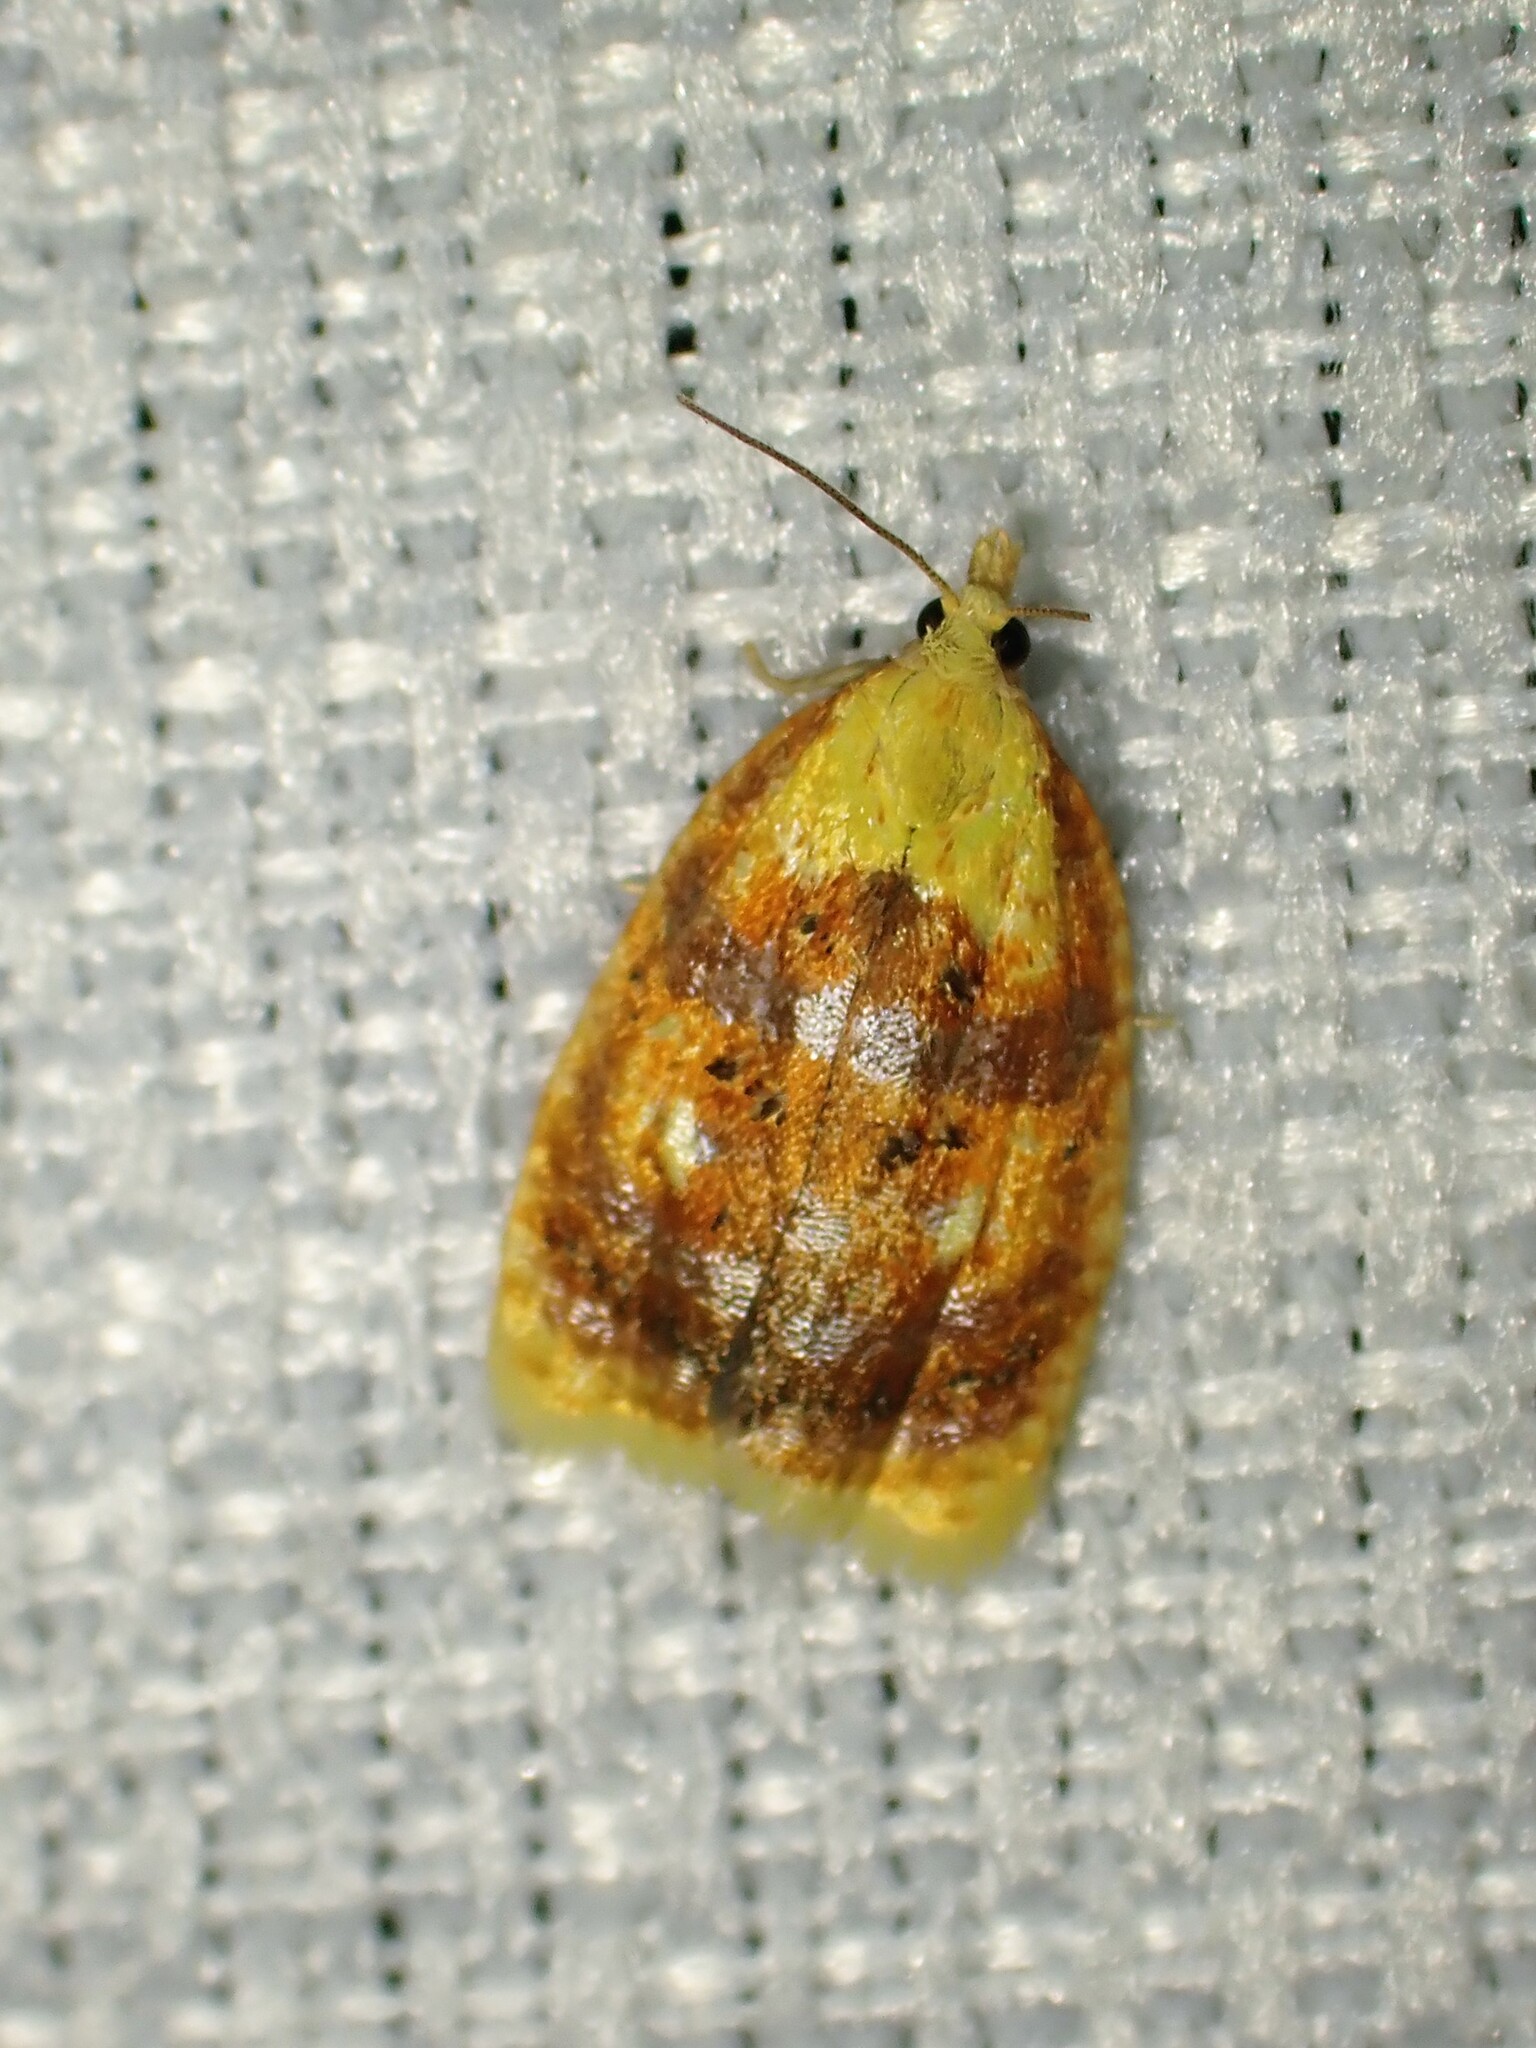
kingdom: Animalia
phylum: Arthropoda
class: Insecta
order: Lepidoptera
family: Tortricidae
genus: Acleris
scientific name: Acleris curvalana
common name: Blueberry leaftier moth
